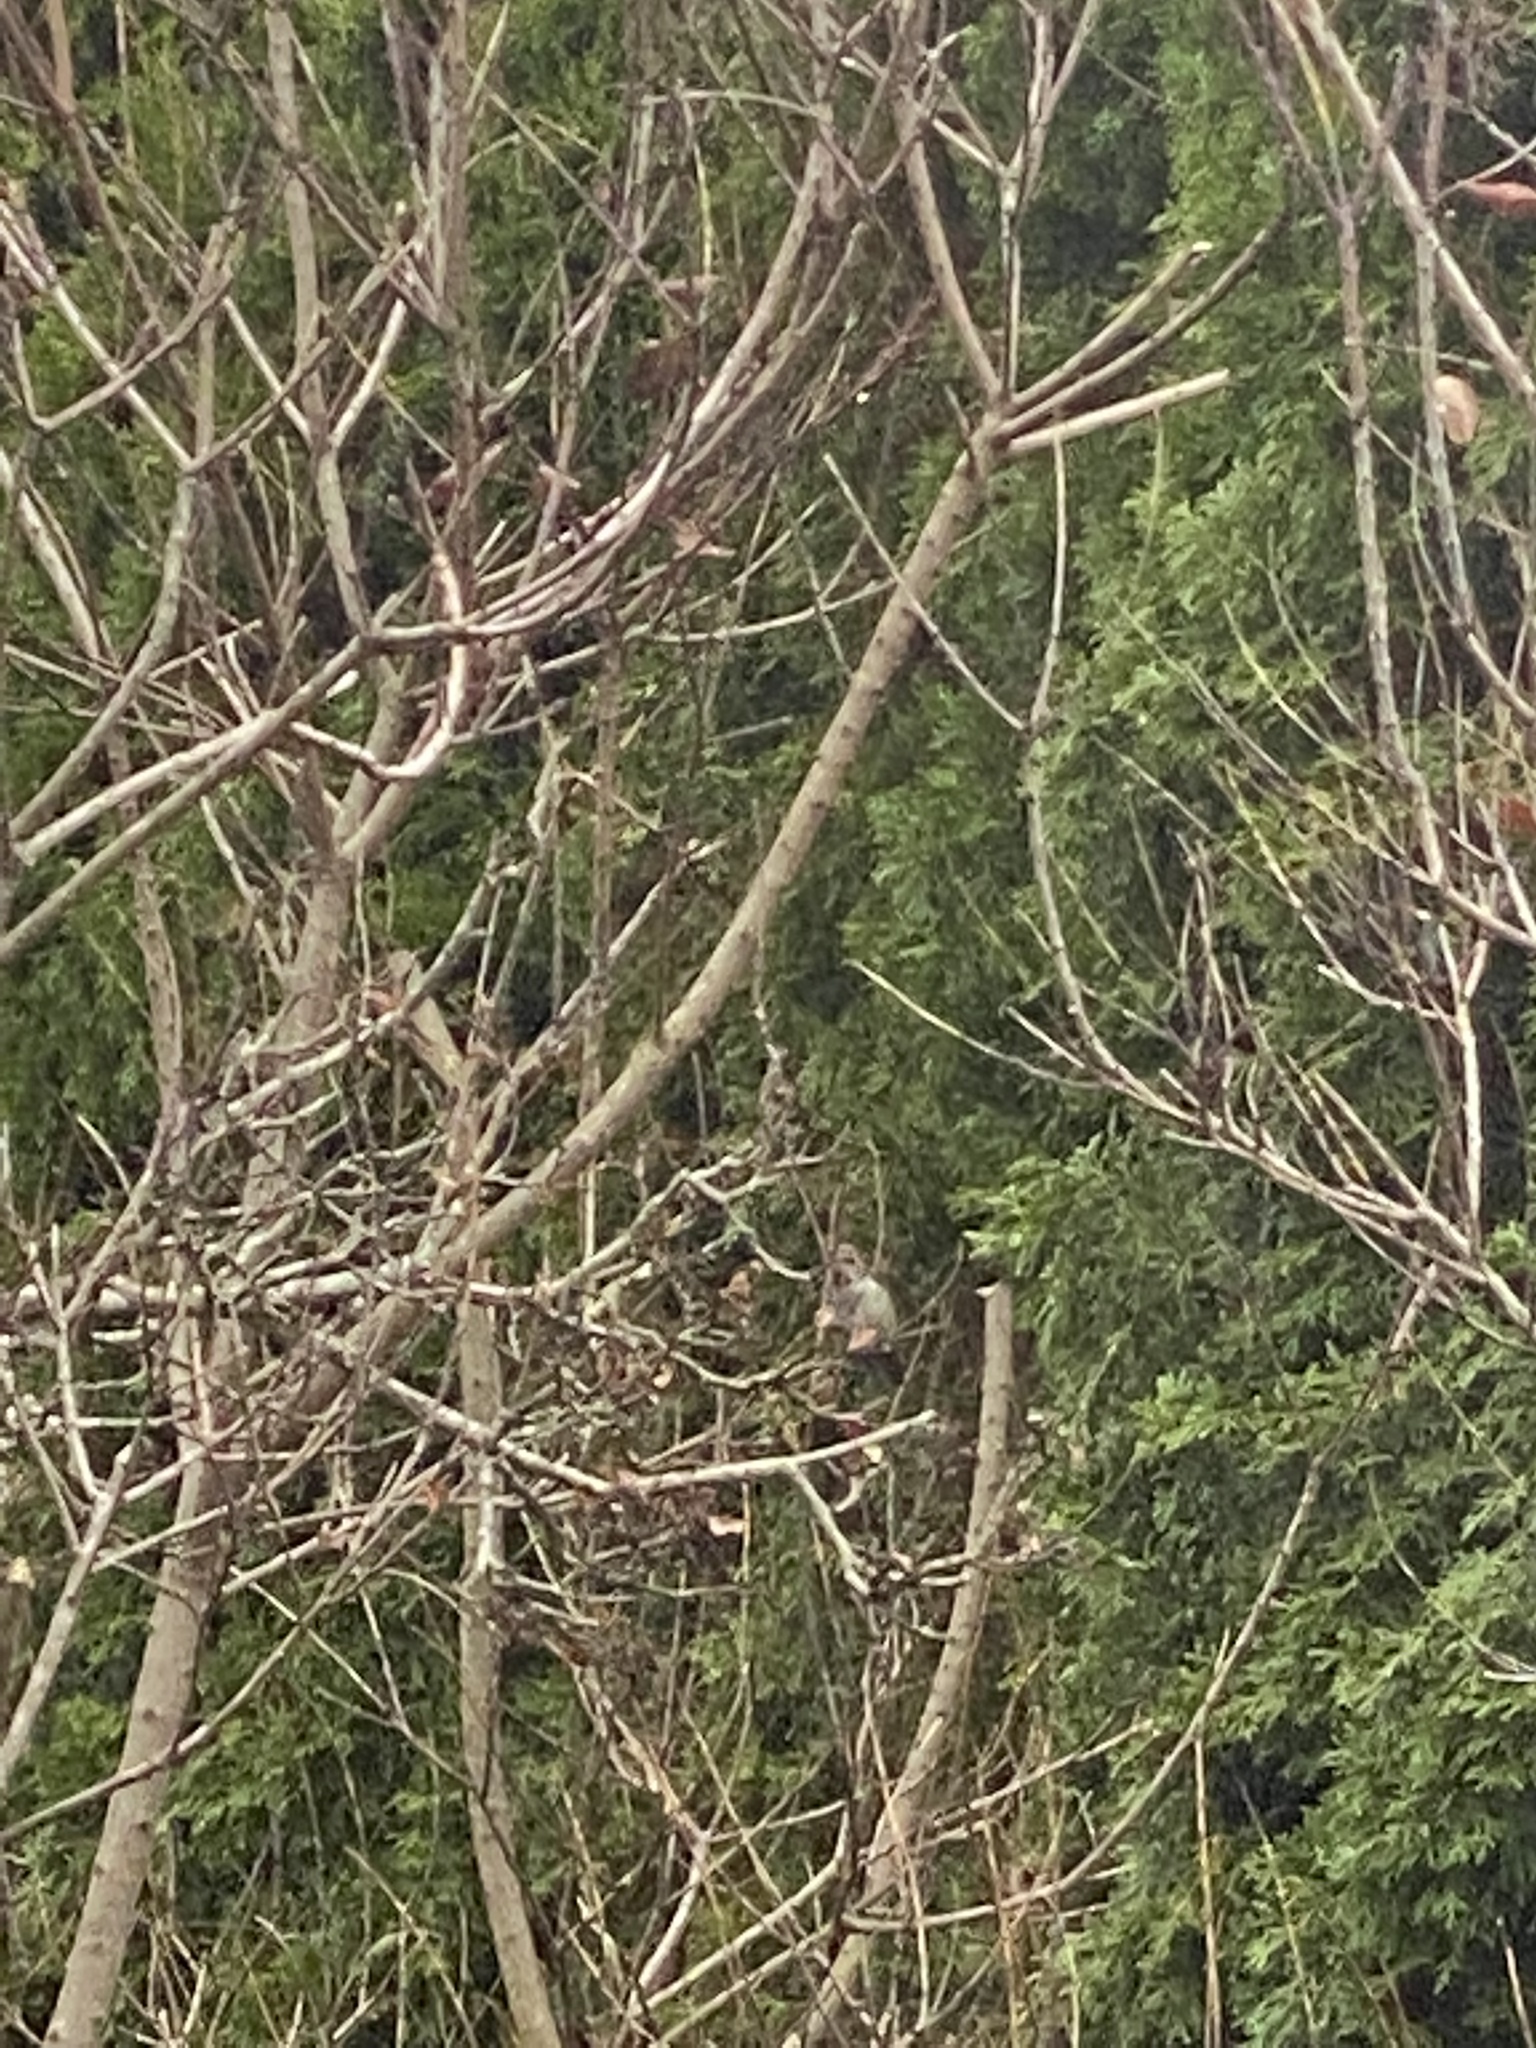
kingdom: Animalia
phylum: Chordata
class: Aves
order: Apodiformes
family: Trochilidae
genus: Calypte
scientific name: Calypte anna
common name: Anna's hummingbird
